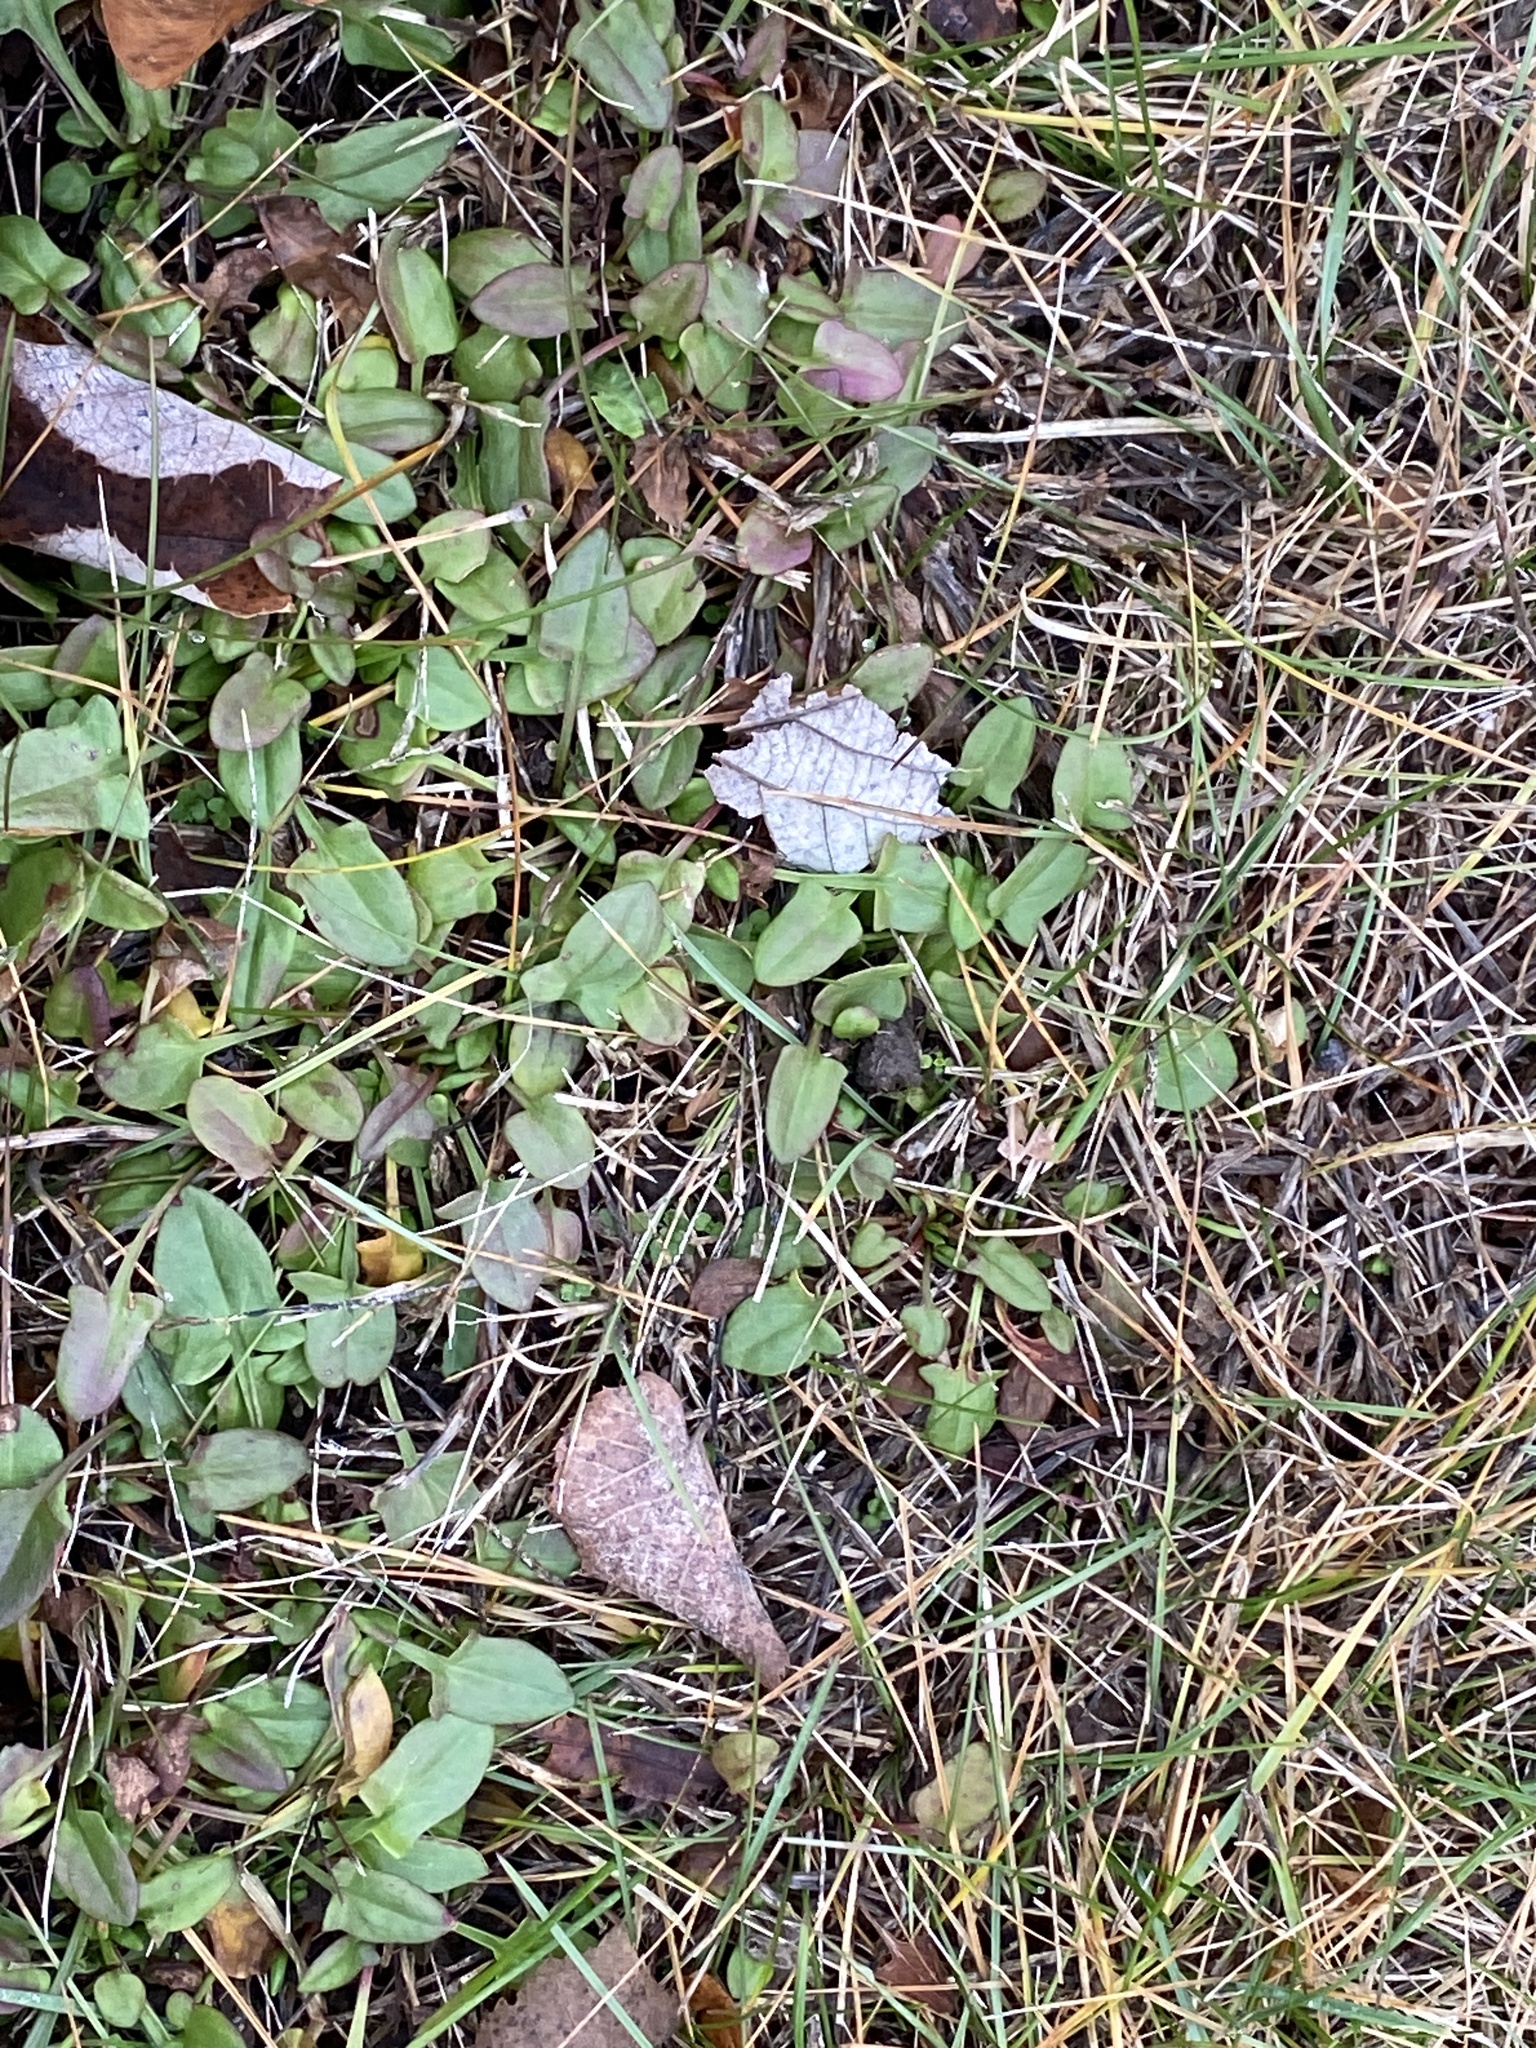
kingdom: Plantae
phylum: Tracheophyta
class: Magnoliopsida
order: Caryophyllales
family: Polygonaceae
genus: Rumex
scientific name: Rumex acetosella
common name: Common sheep sorrel
